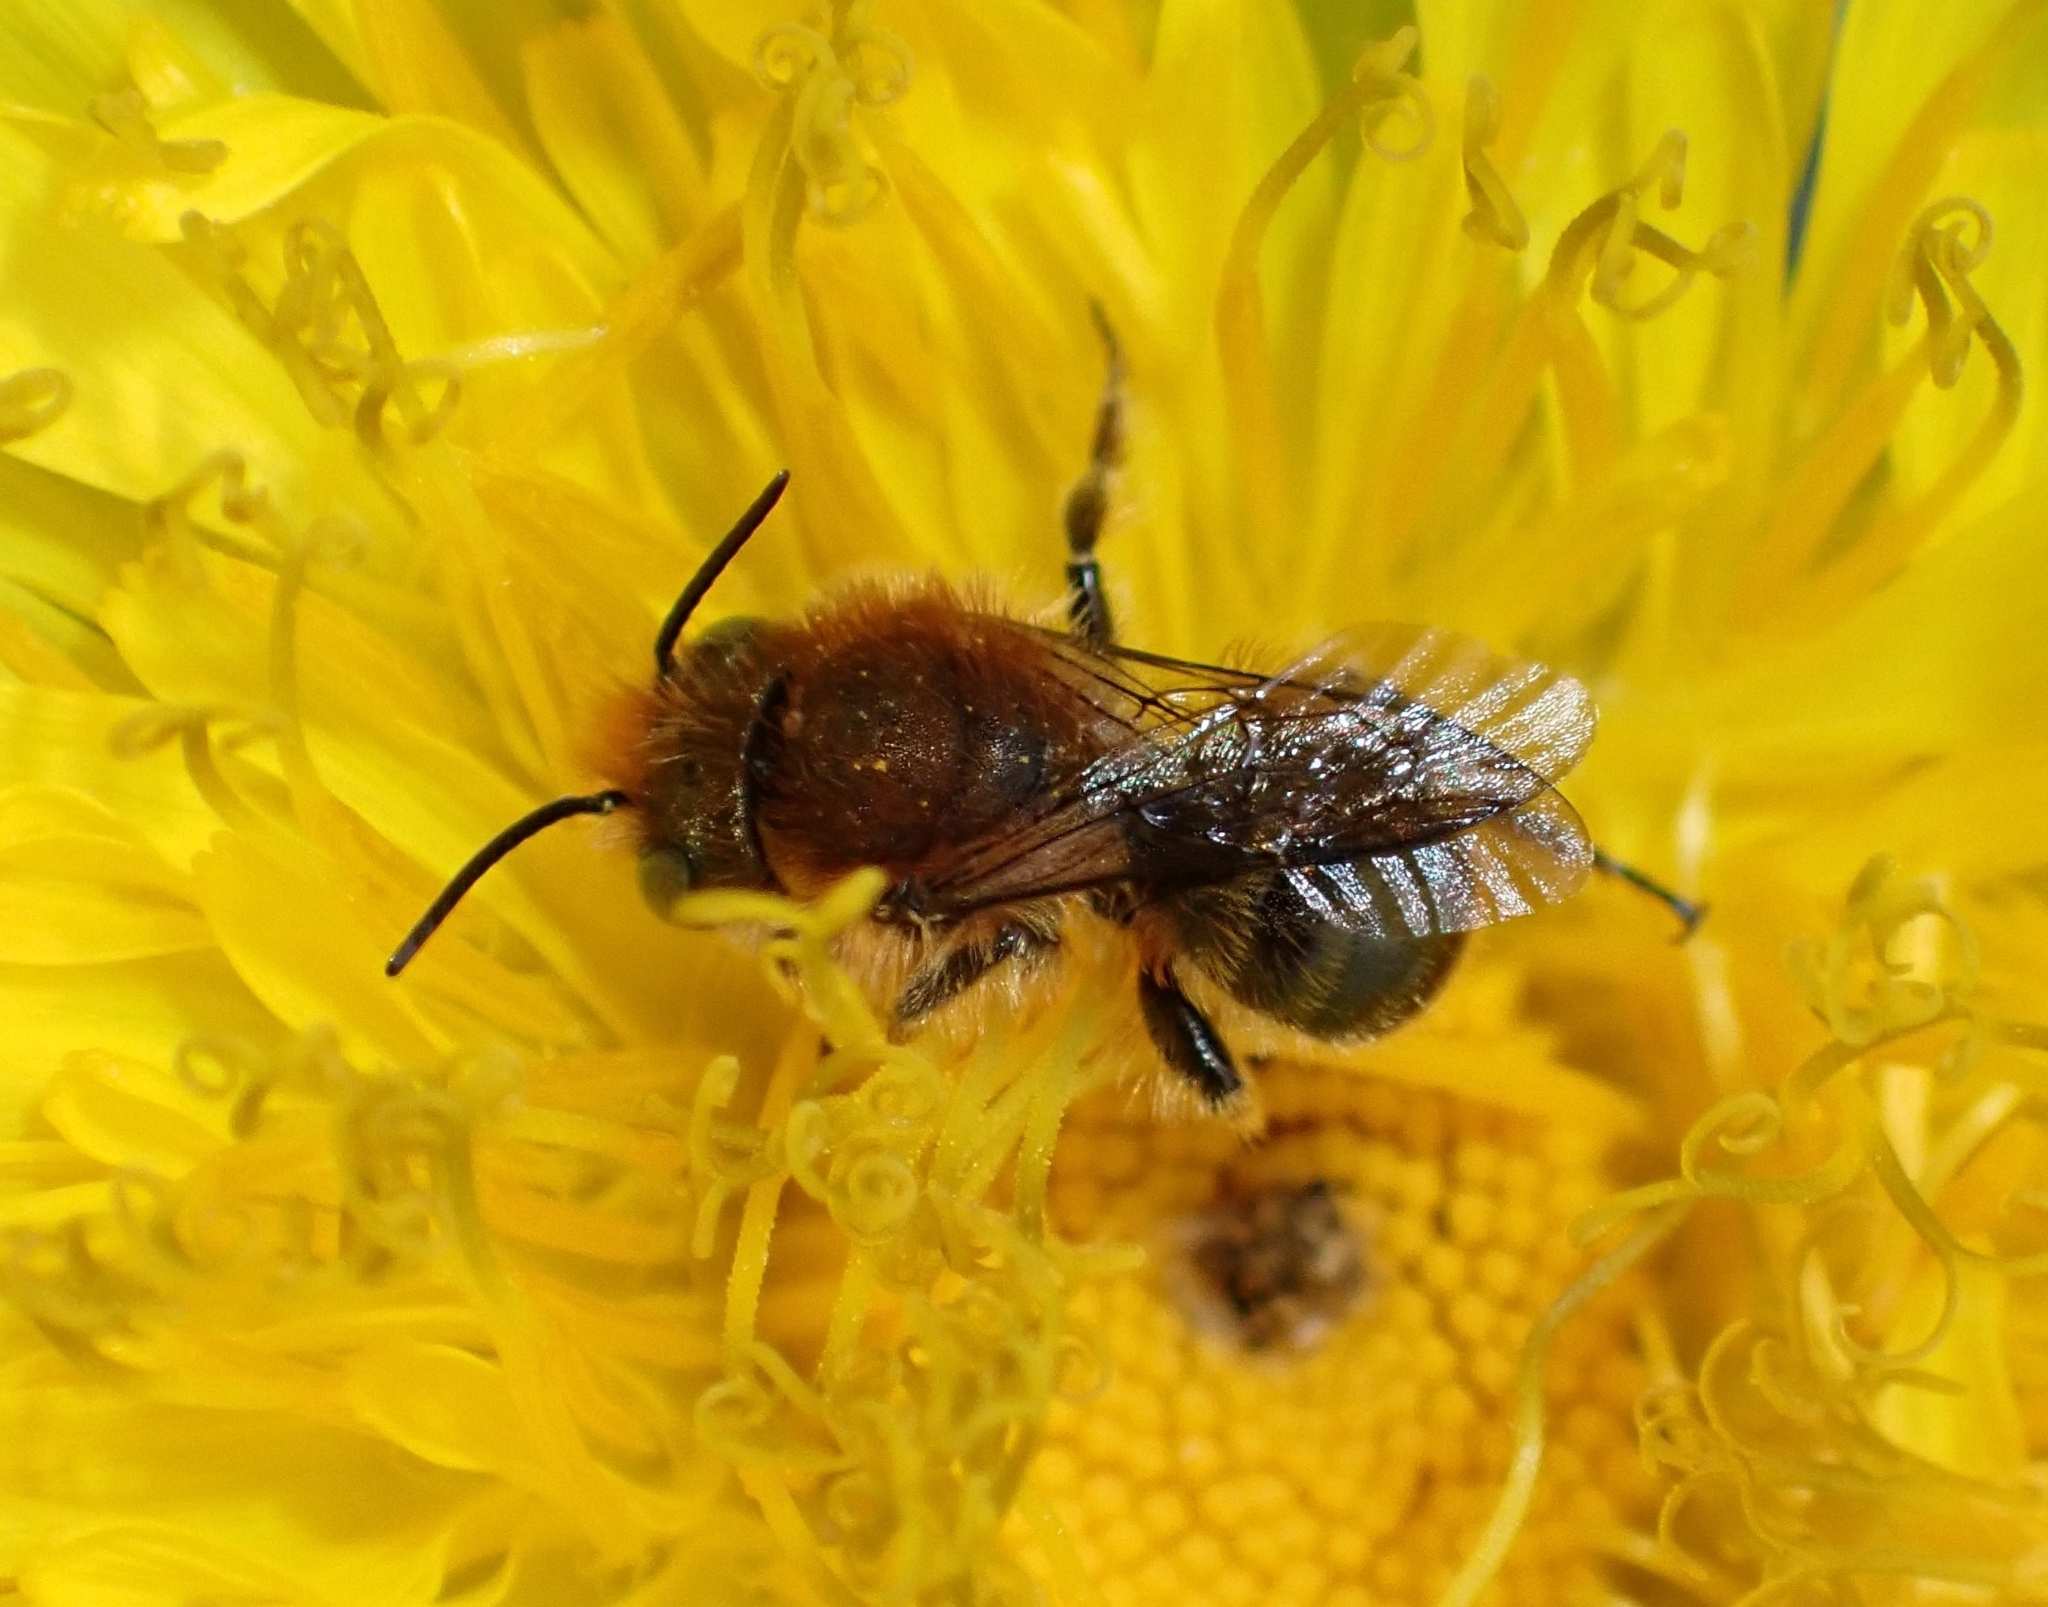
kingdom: Animalia
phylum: Arthropoda
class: Insecta
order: Hymenoptera
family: Megachilidae
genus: Osmia
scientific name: Osmia latreillei
